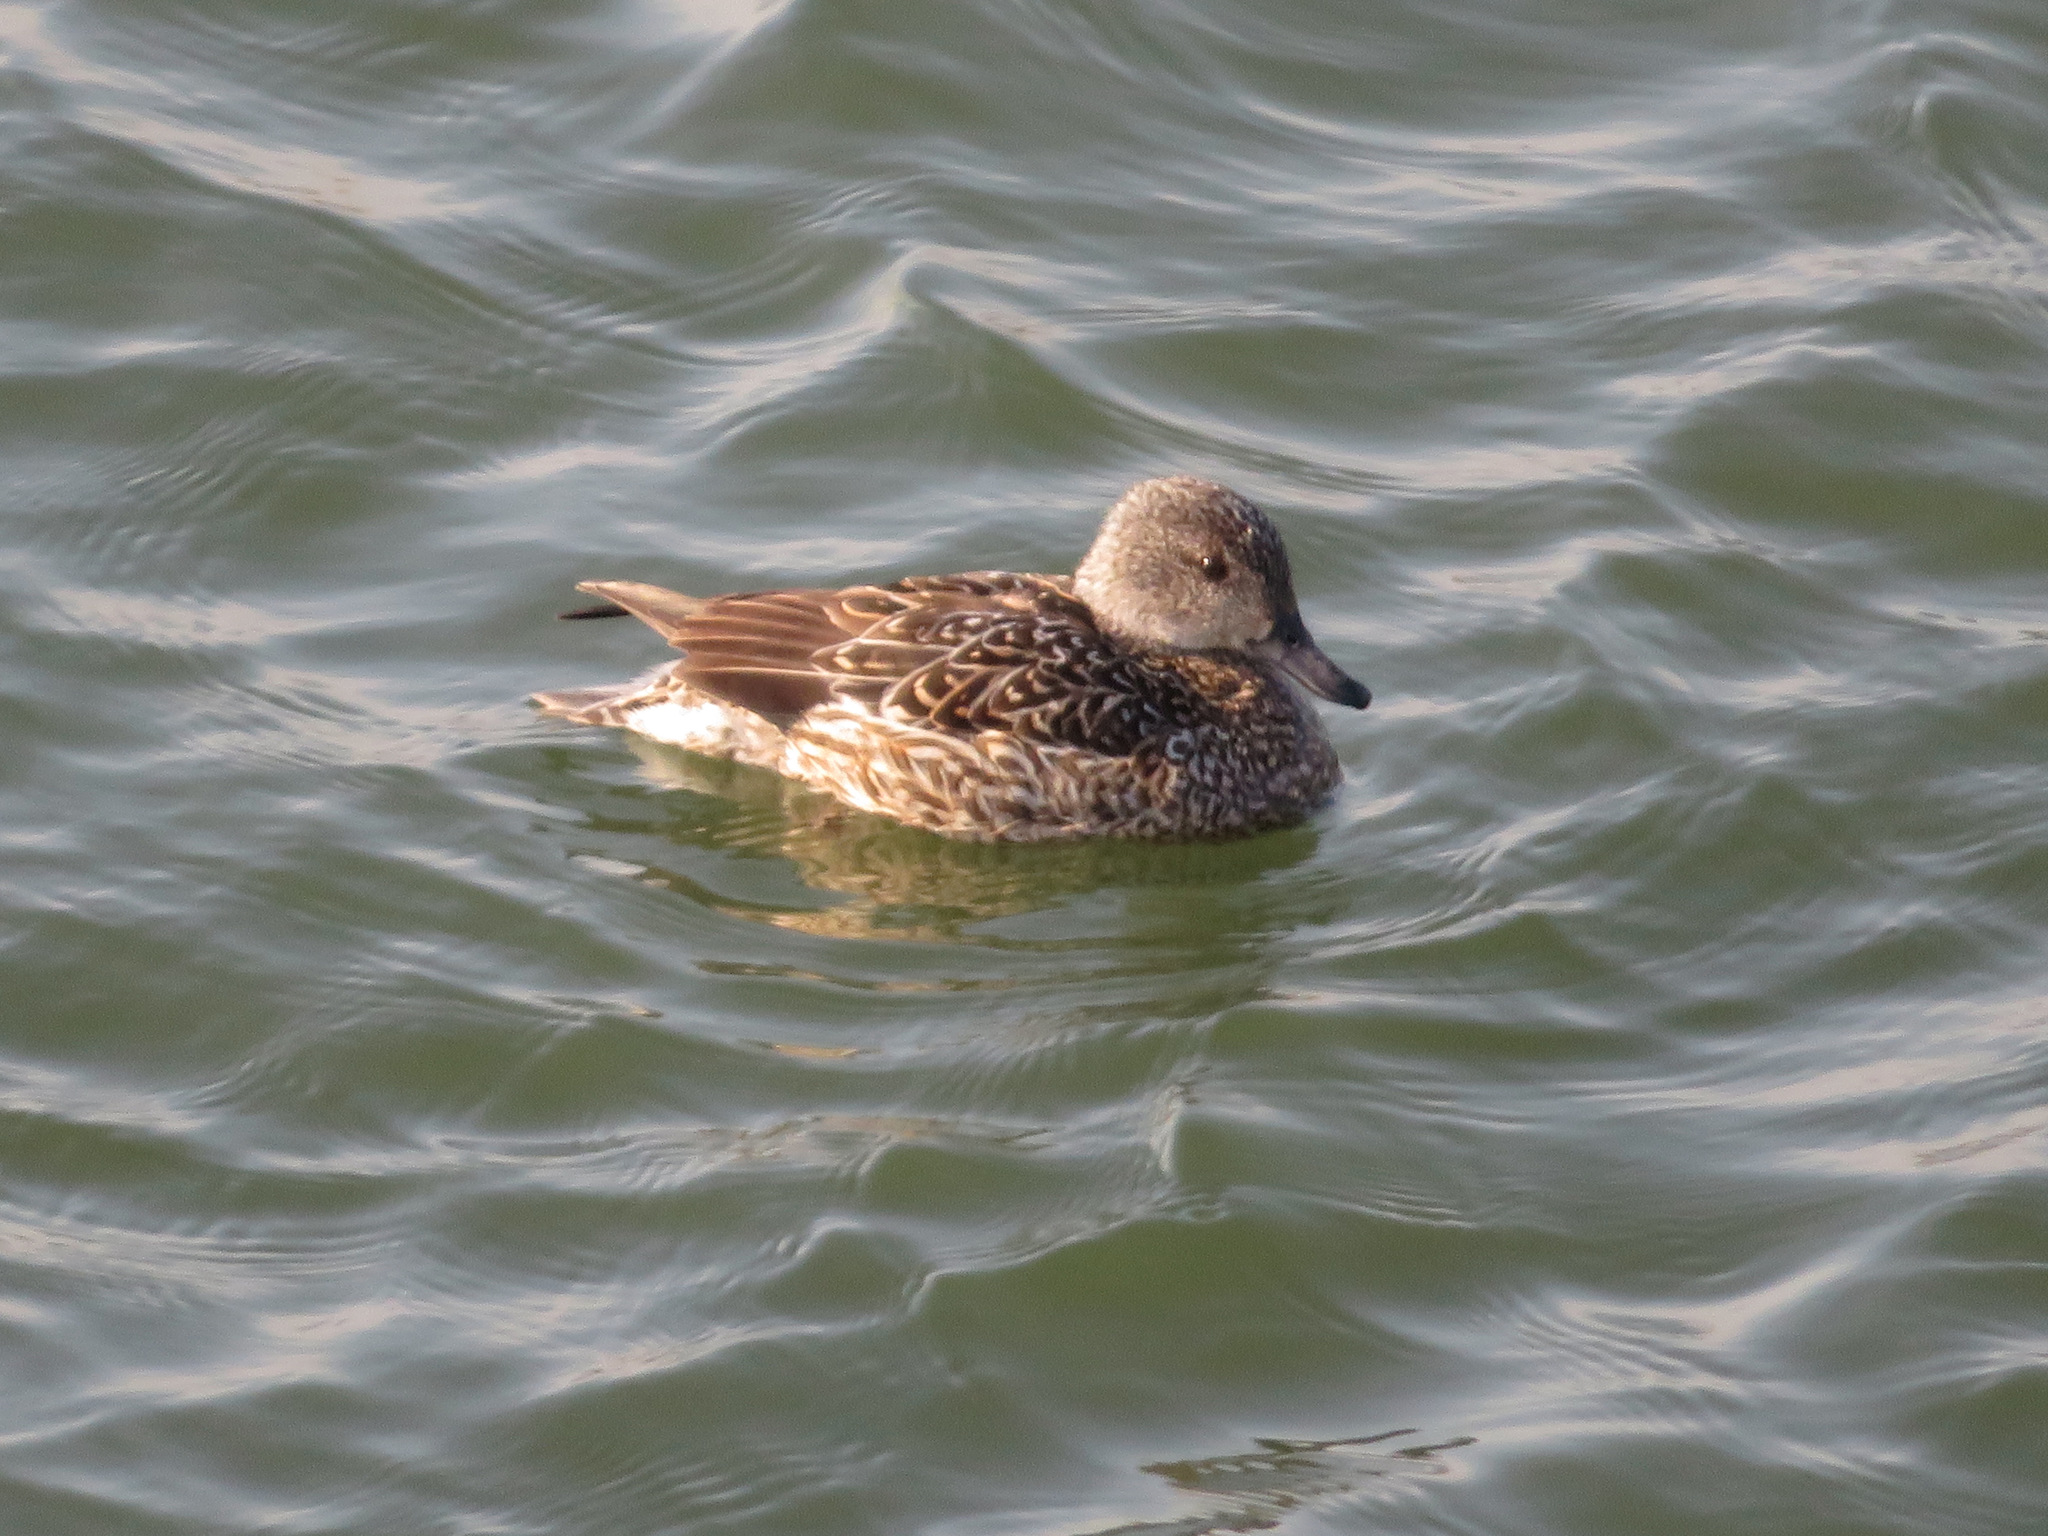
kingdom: Animalia
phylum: Chordata
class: Aves
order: Anseriformes
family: Anatidae
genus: Mareca
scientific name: Mareca falcata
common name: Falcated duck
